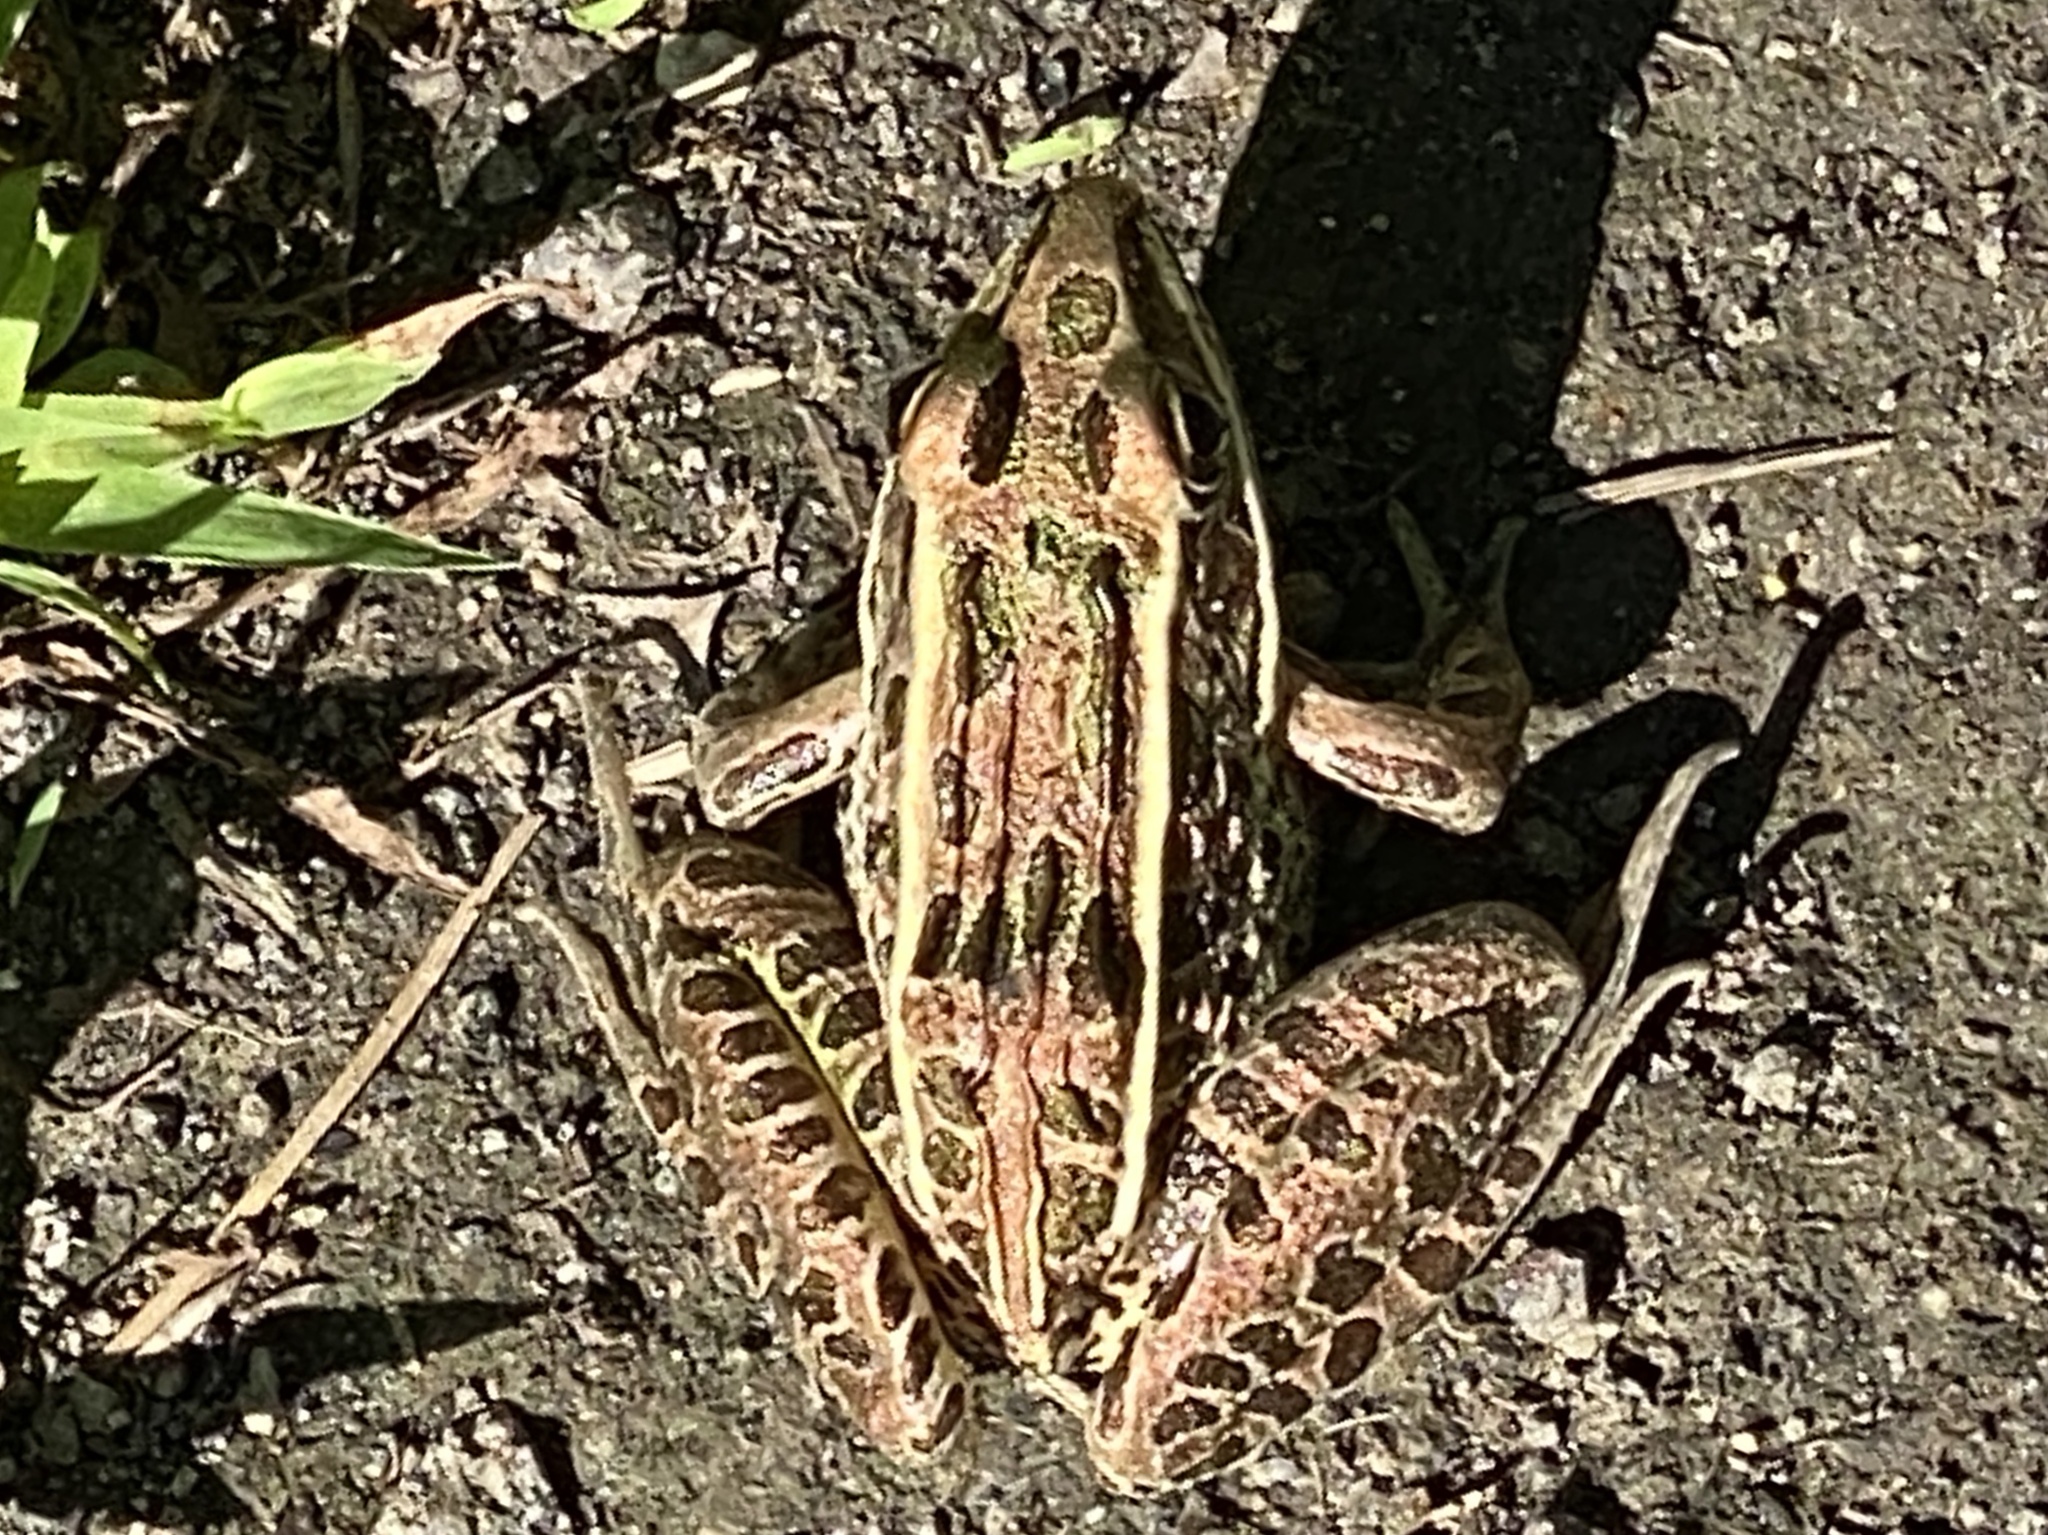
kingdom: Animalia
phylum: Chordata
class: Amphibia
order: Anura
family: Ranidae
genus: Lithobates
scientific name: Lithobates pipiens
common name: Northern leopard frog
